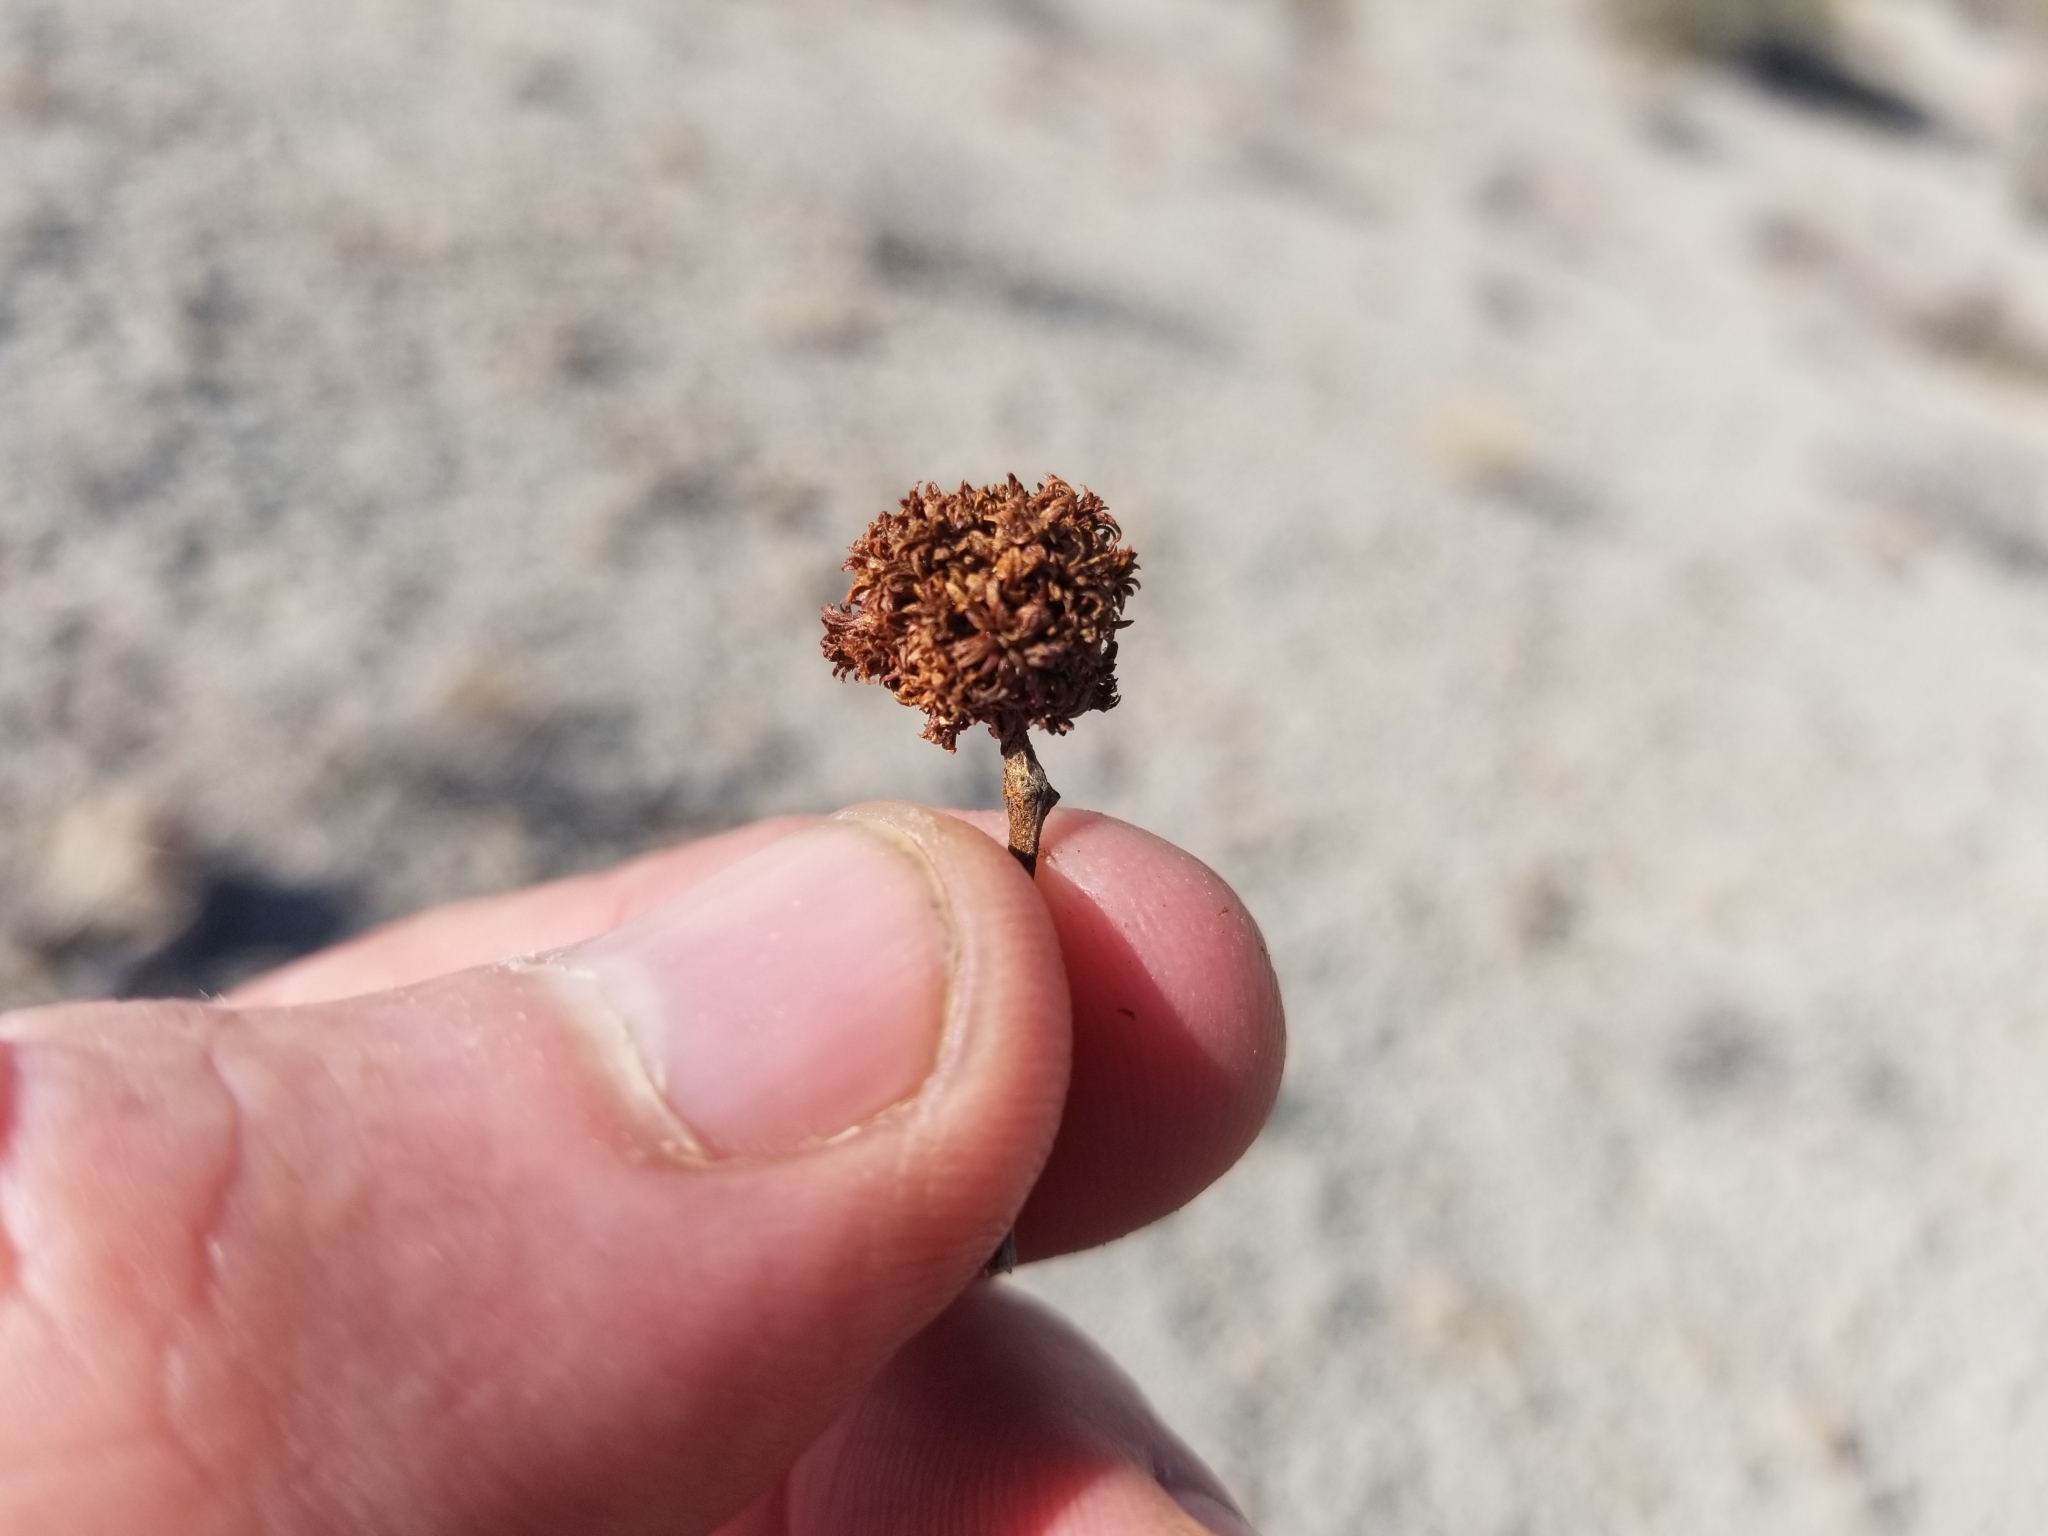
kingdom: Animalia
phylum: Arthropoda
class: Insecta
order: Diptera
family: Cecidomyiidae
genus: Asphondylia
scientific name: Asphondylia auripila
